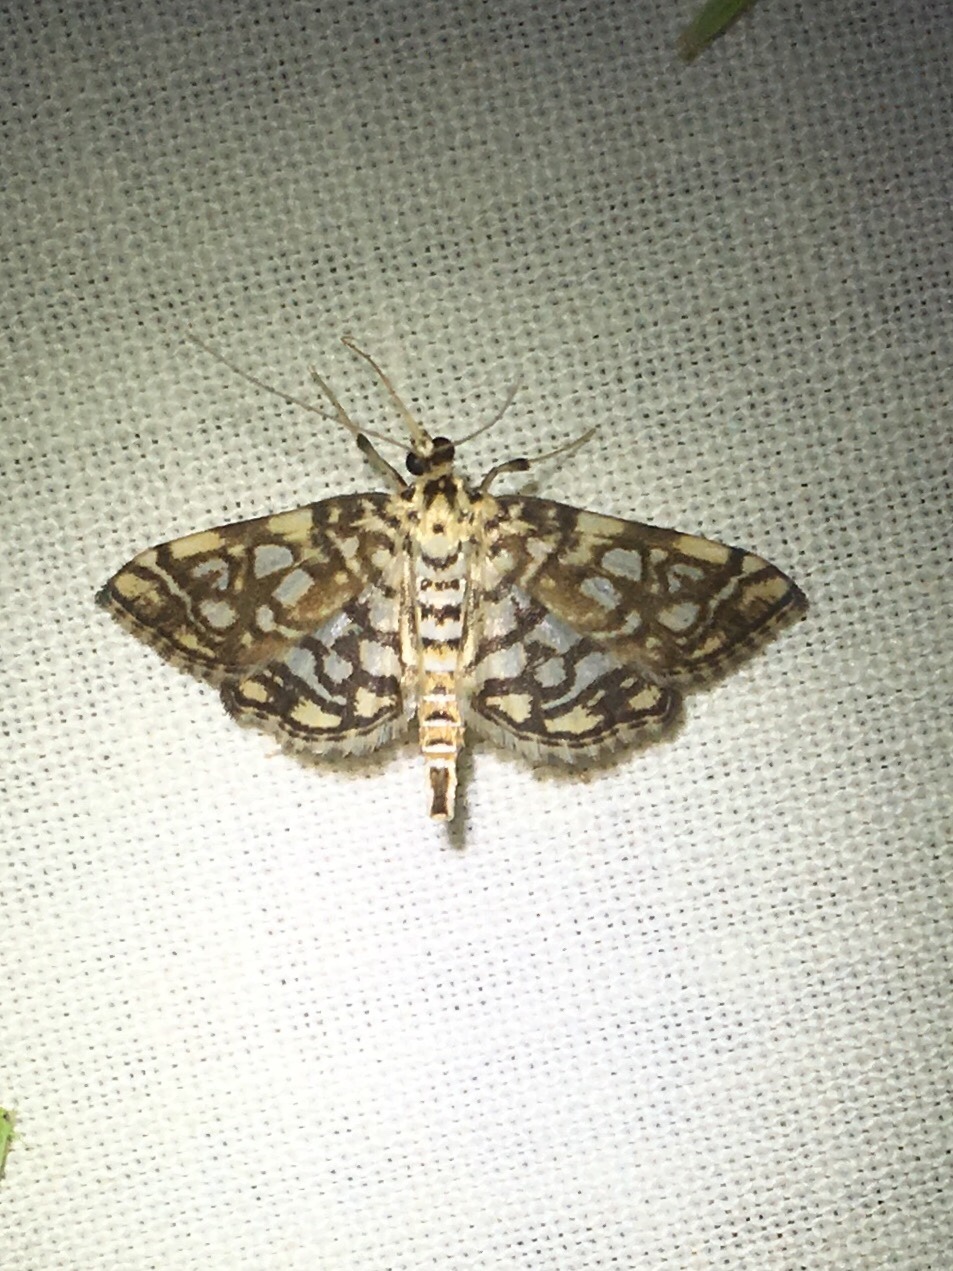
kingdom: Animalia
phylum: Arthropoda
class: Insecta
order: Lepidoptera
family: Crambidae
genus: Lygropia
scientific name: Lygropia rivulalis
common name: Bog lygropia moth
